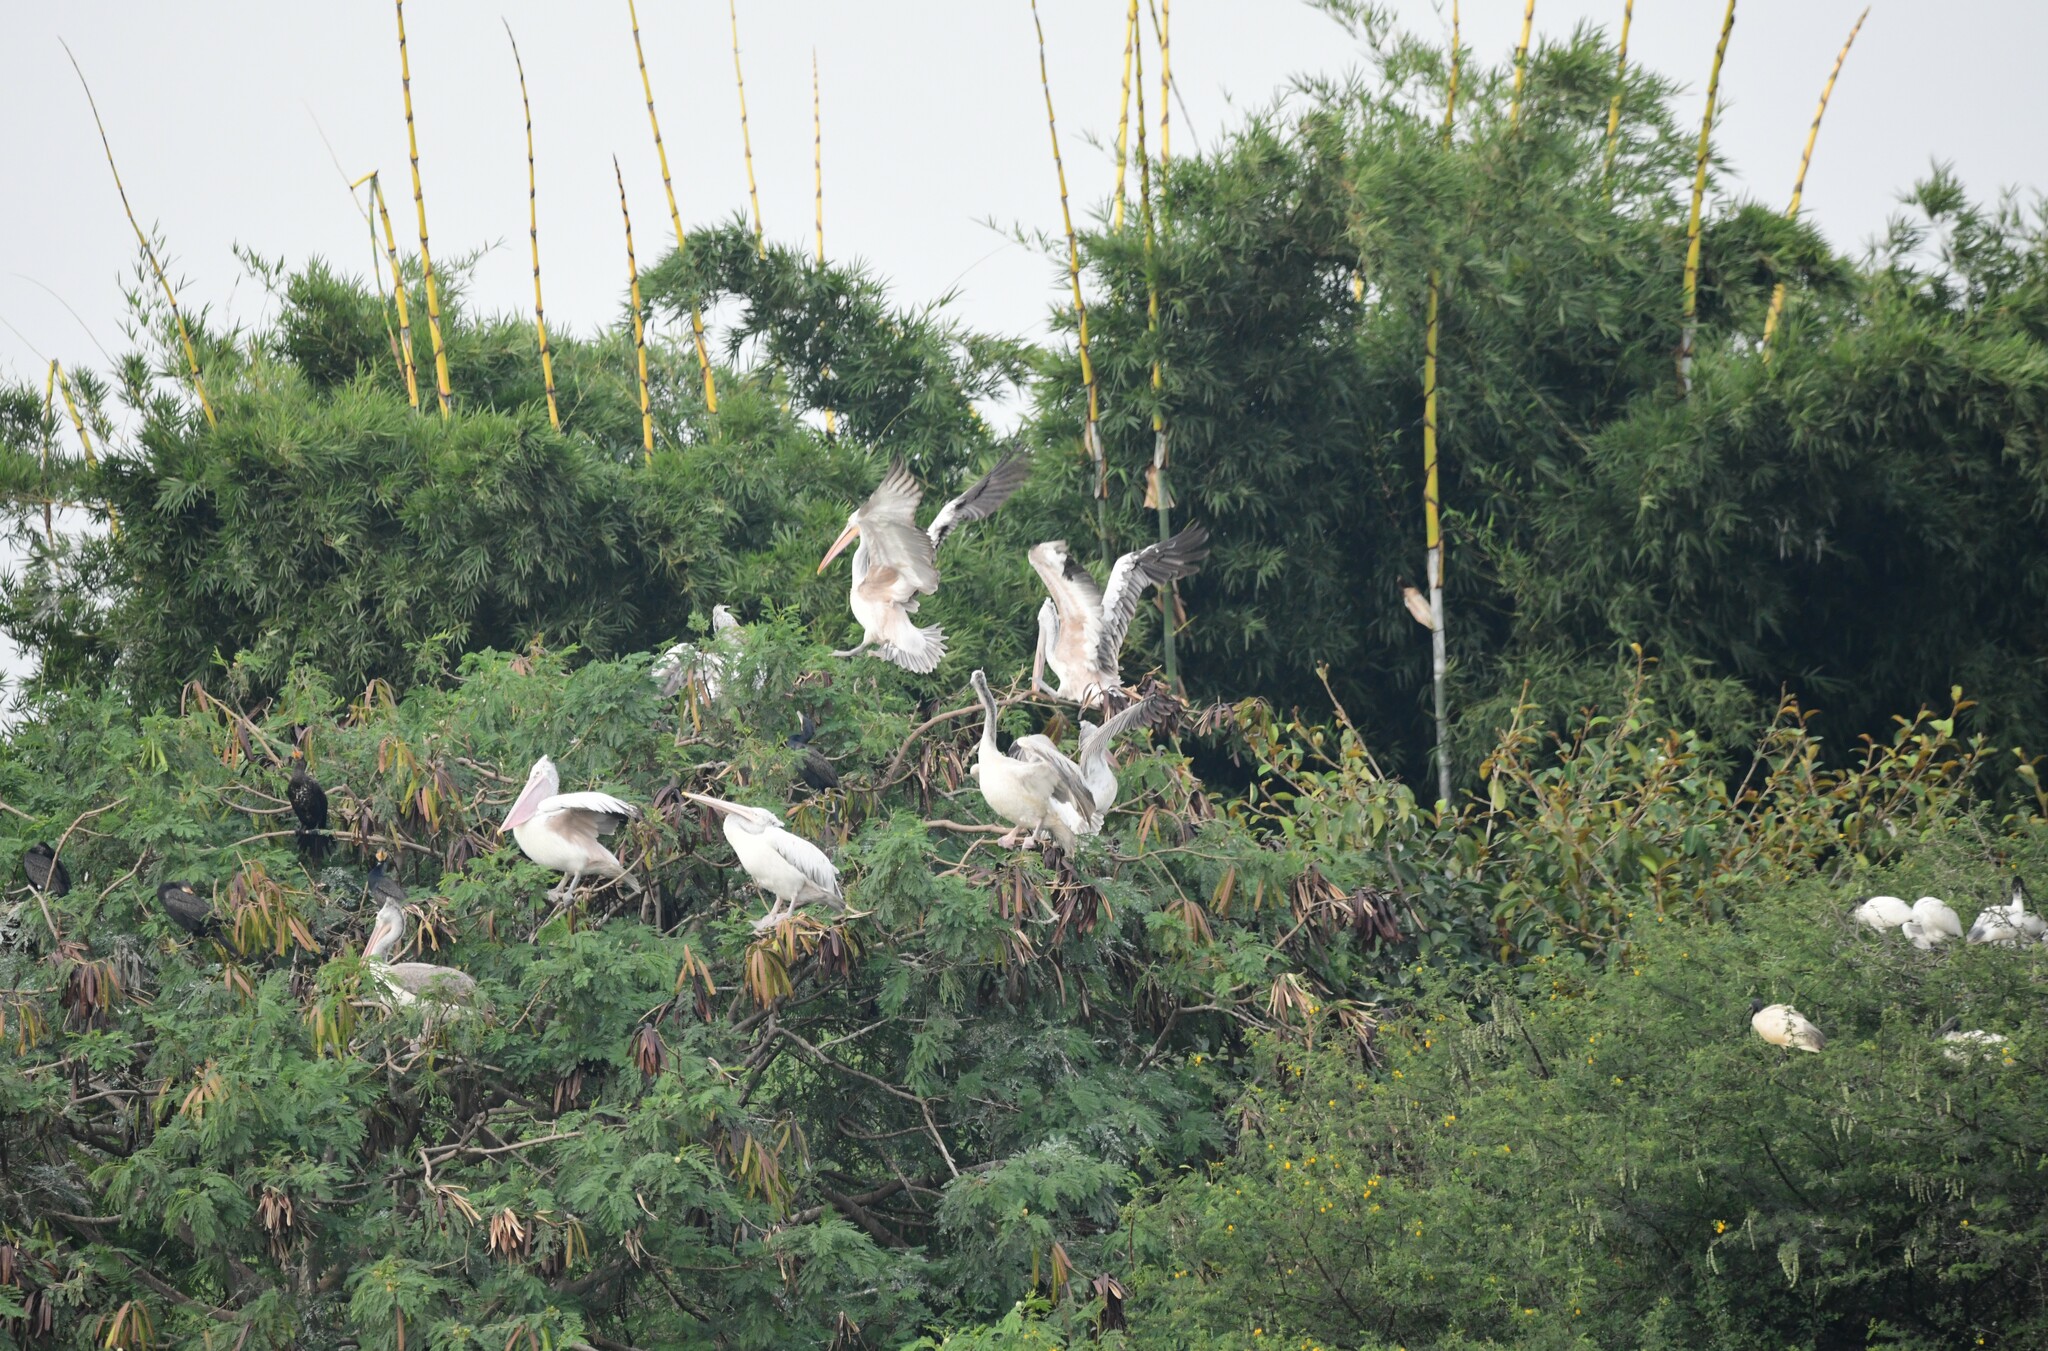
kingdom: Animalia
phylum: Chordata
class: Aves
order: Pelecaniformes
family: Pelecanidae
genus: Pelecanus
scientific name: Pelecanus philippensis
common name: Spot-billed pelican
